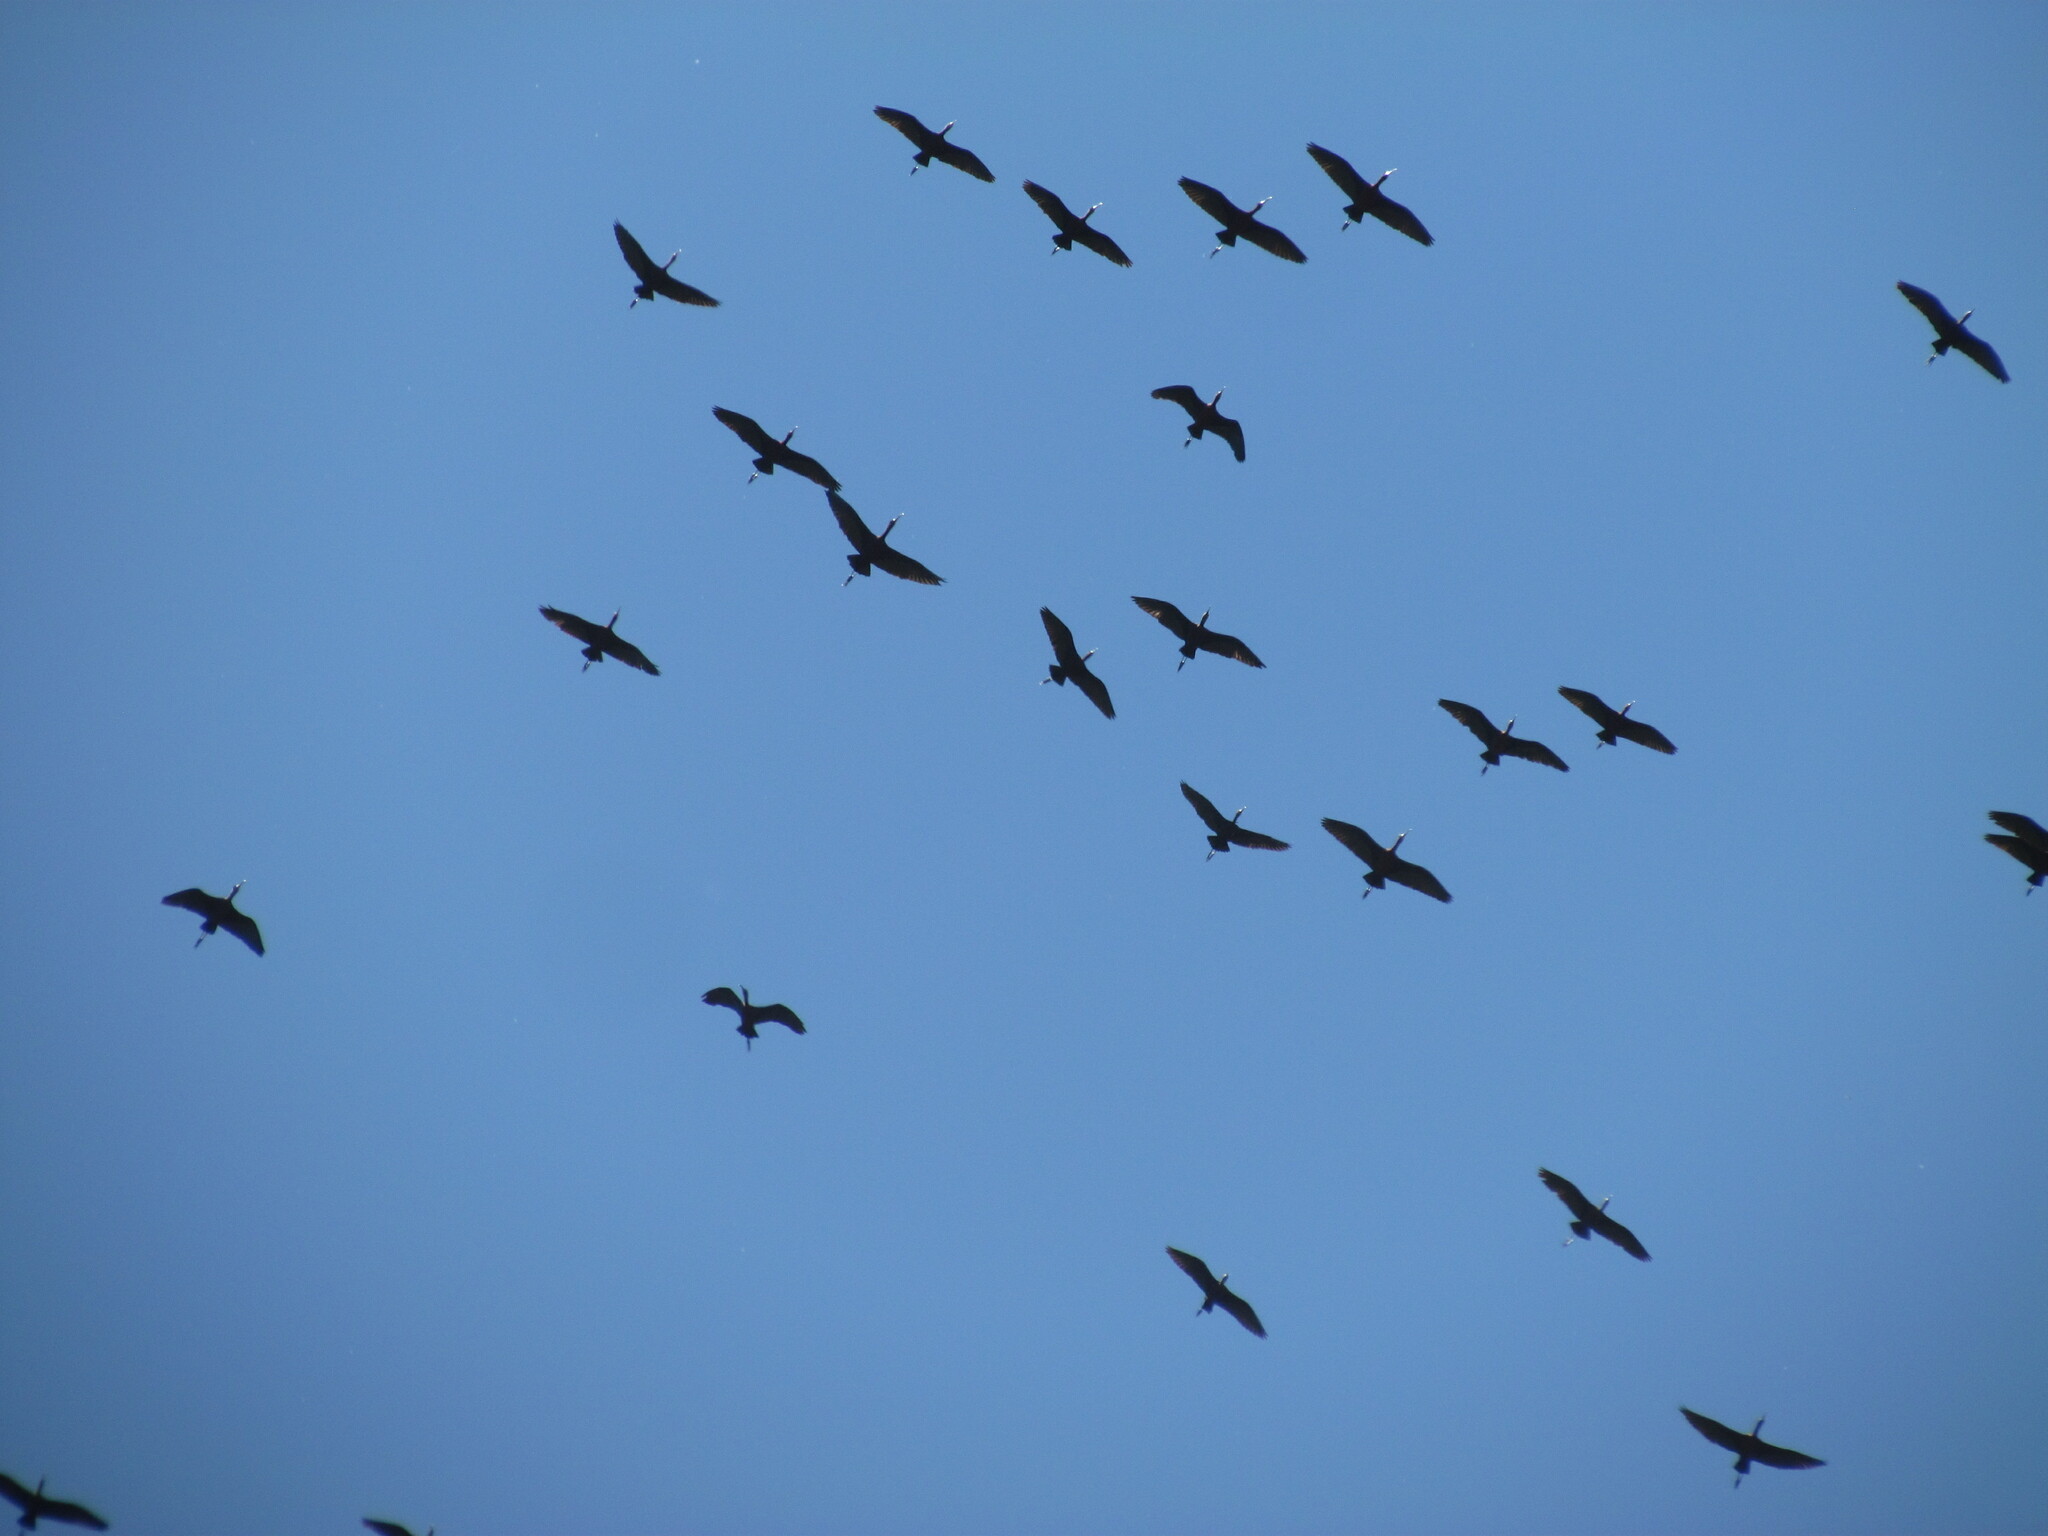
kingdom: Animalia
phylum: Chordata
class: Aves
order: Pelecaniformes
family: Threskiornithidae
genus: Plegadis
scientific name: Plegadis chihi
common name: White-faced ibis
